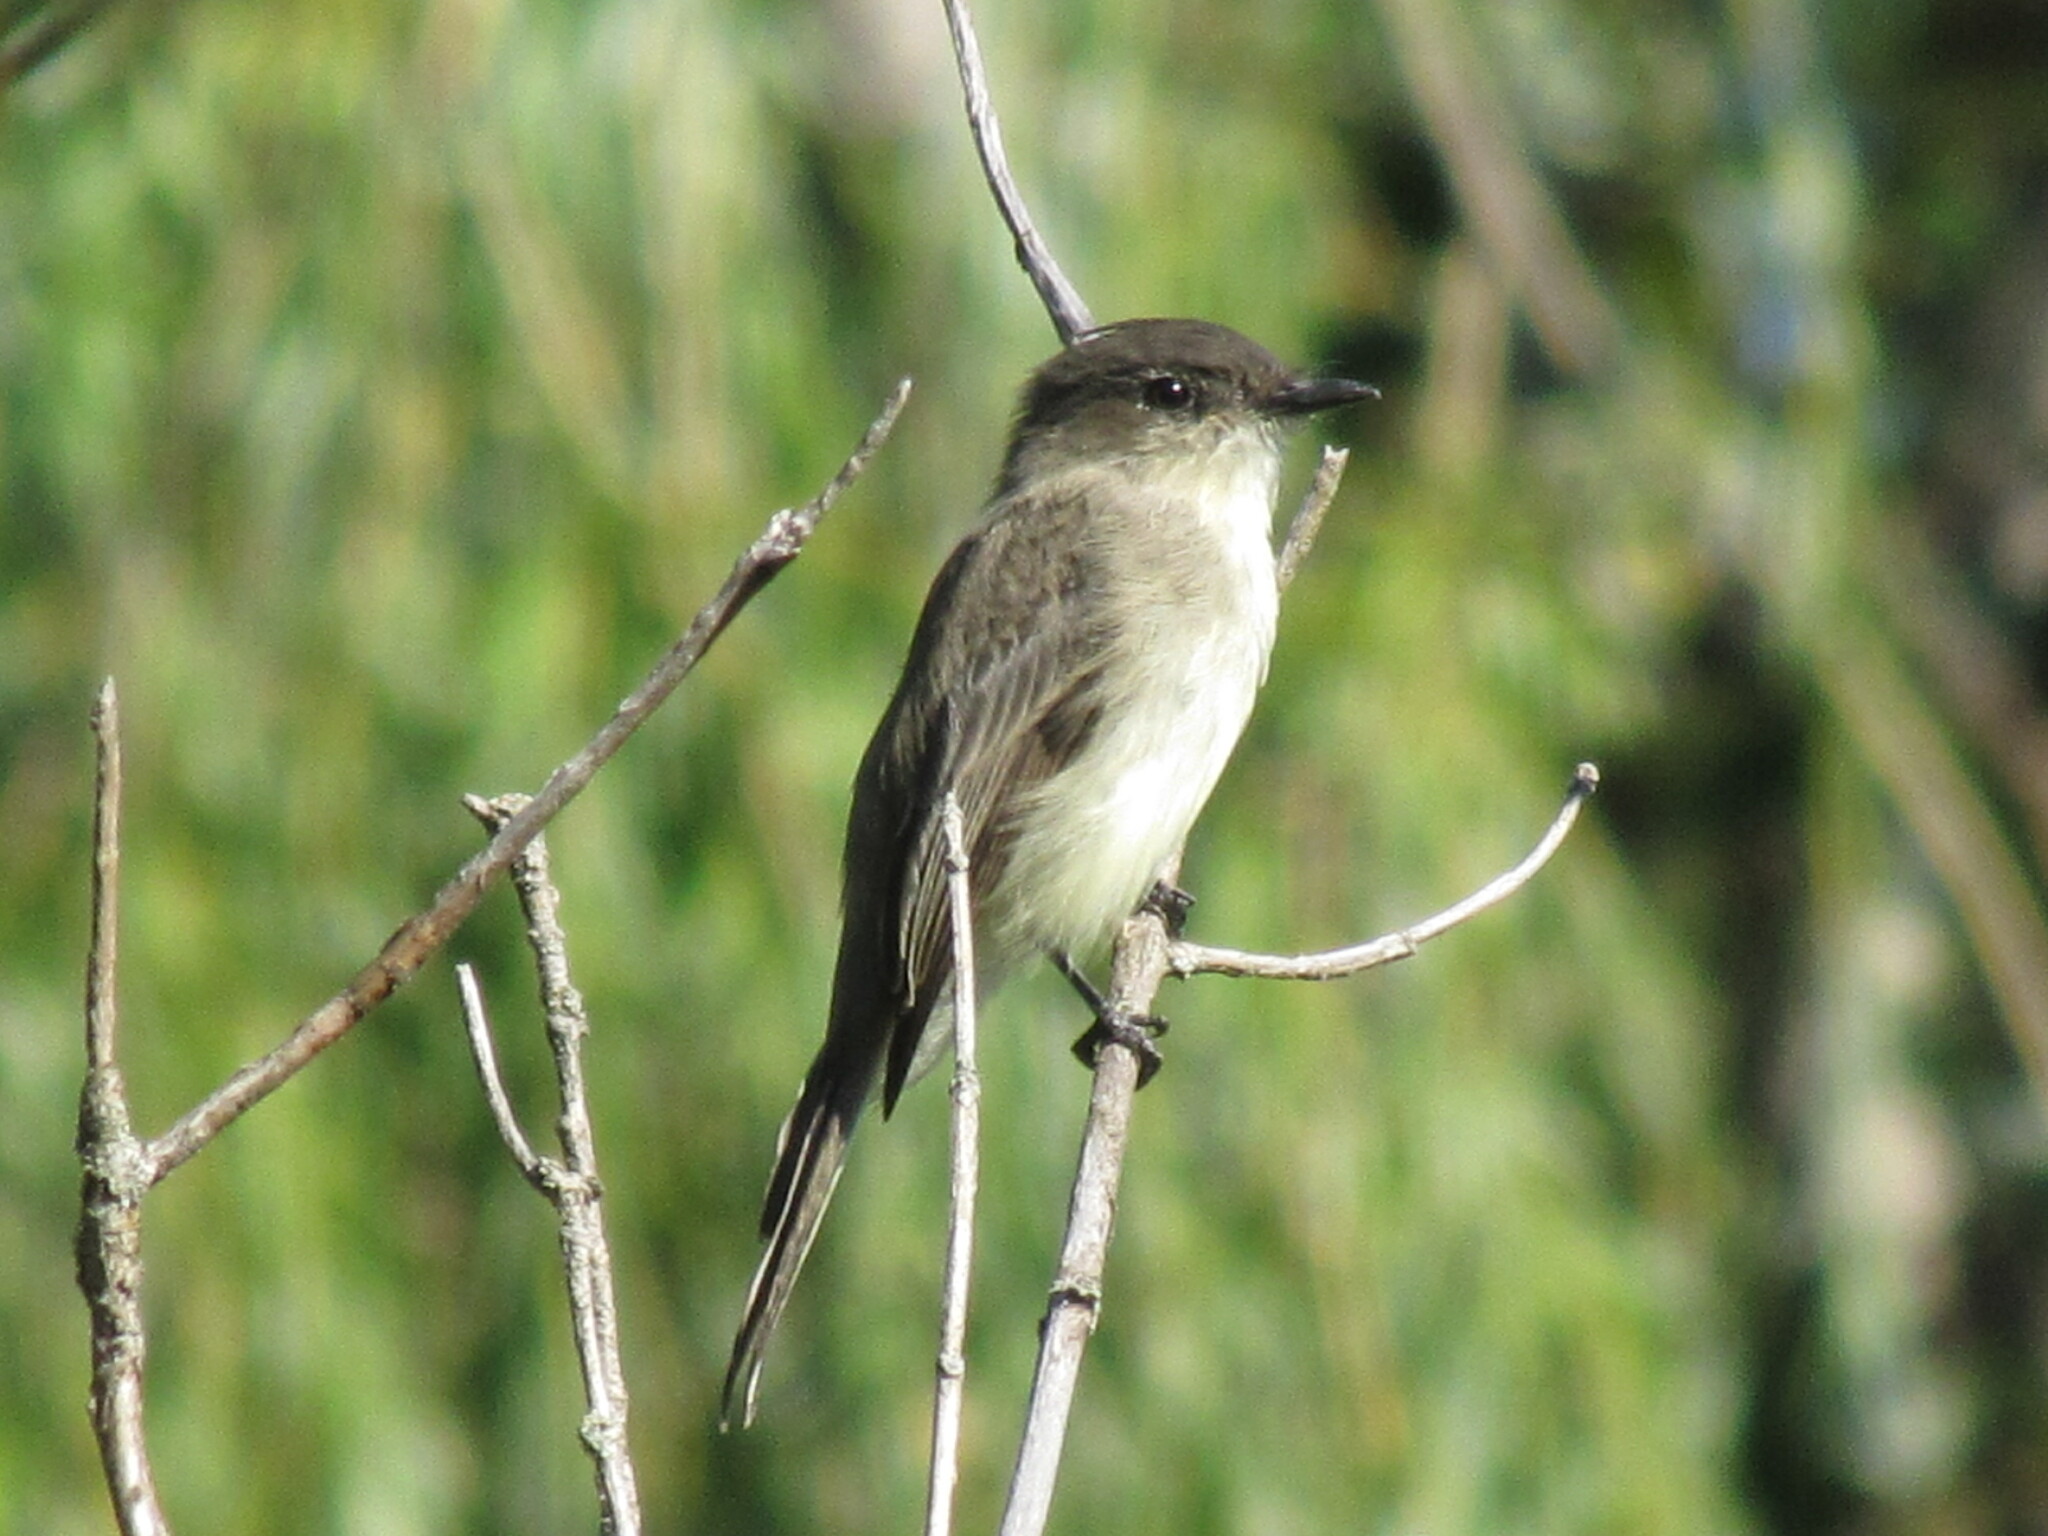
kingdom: Animalia
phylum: Chordata
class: Aves
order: Passeriformes
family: Tyrannidae
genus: Sayornis
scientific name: Sayornis phoebe
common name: Eastern phoebe
